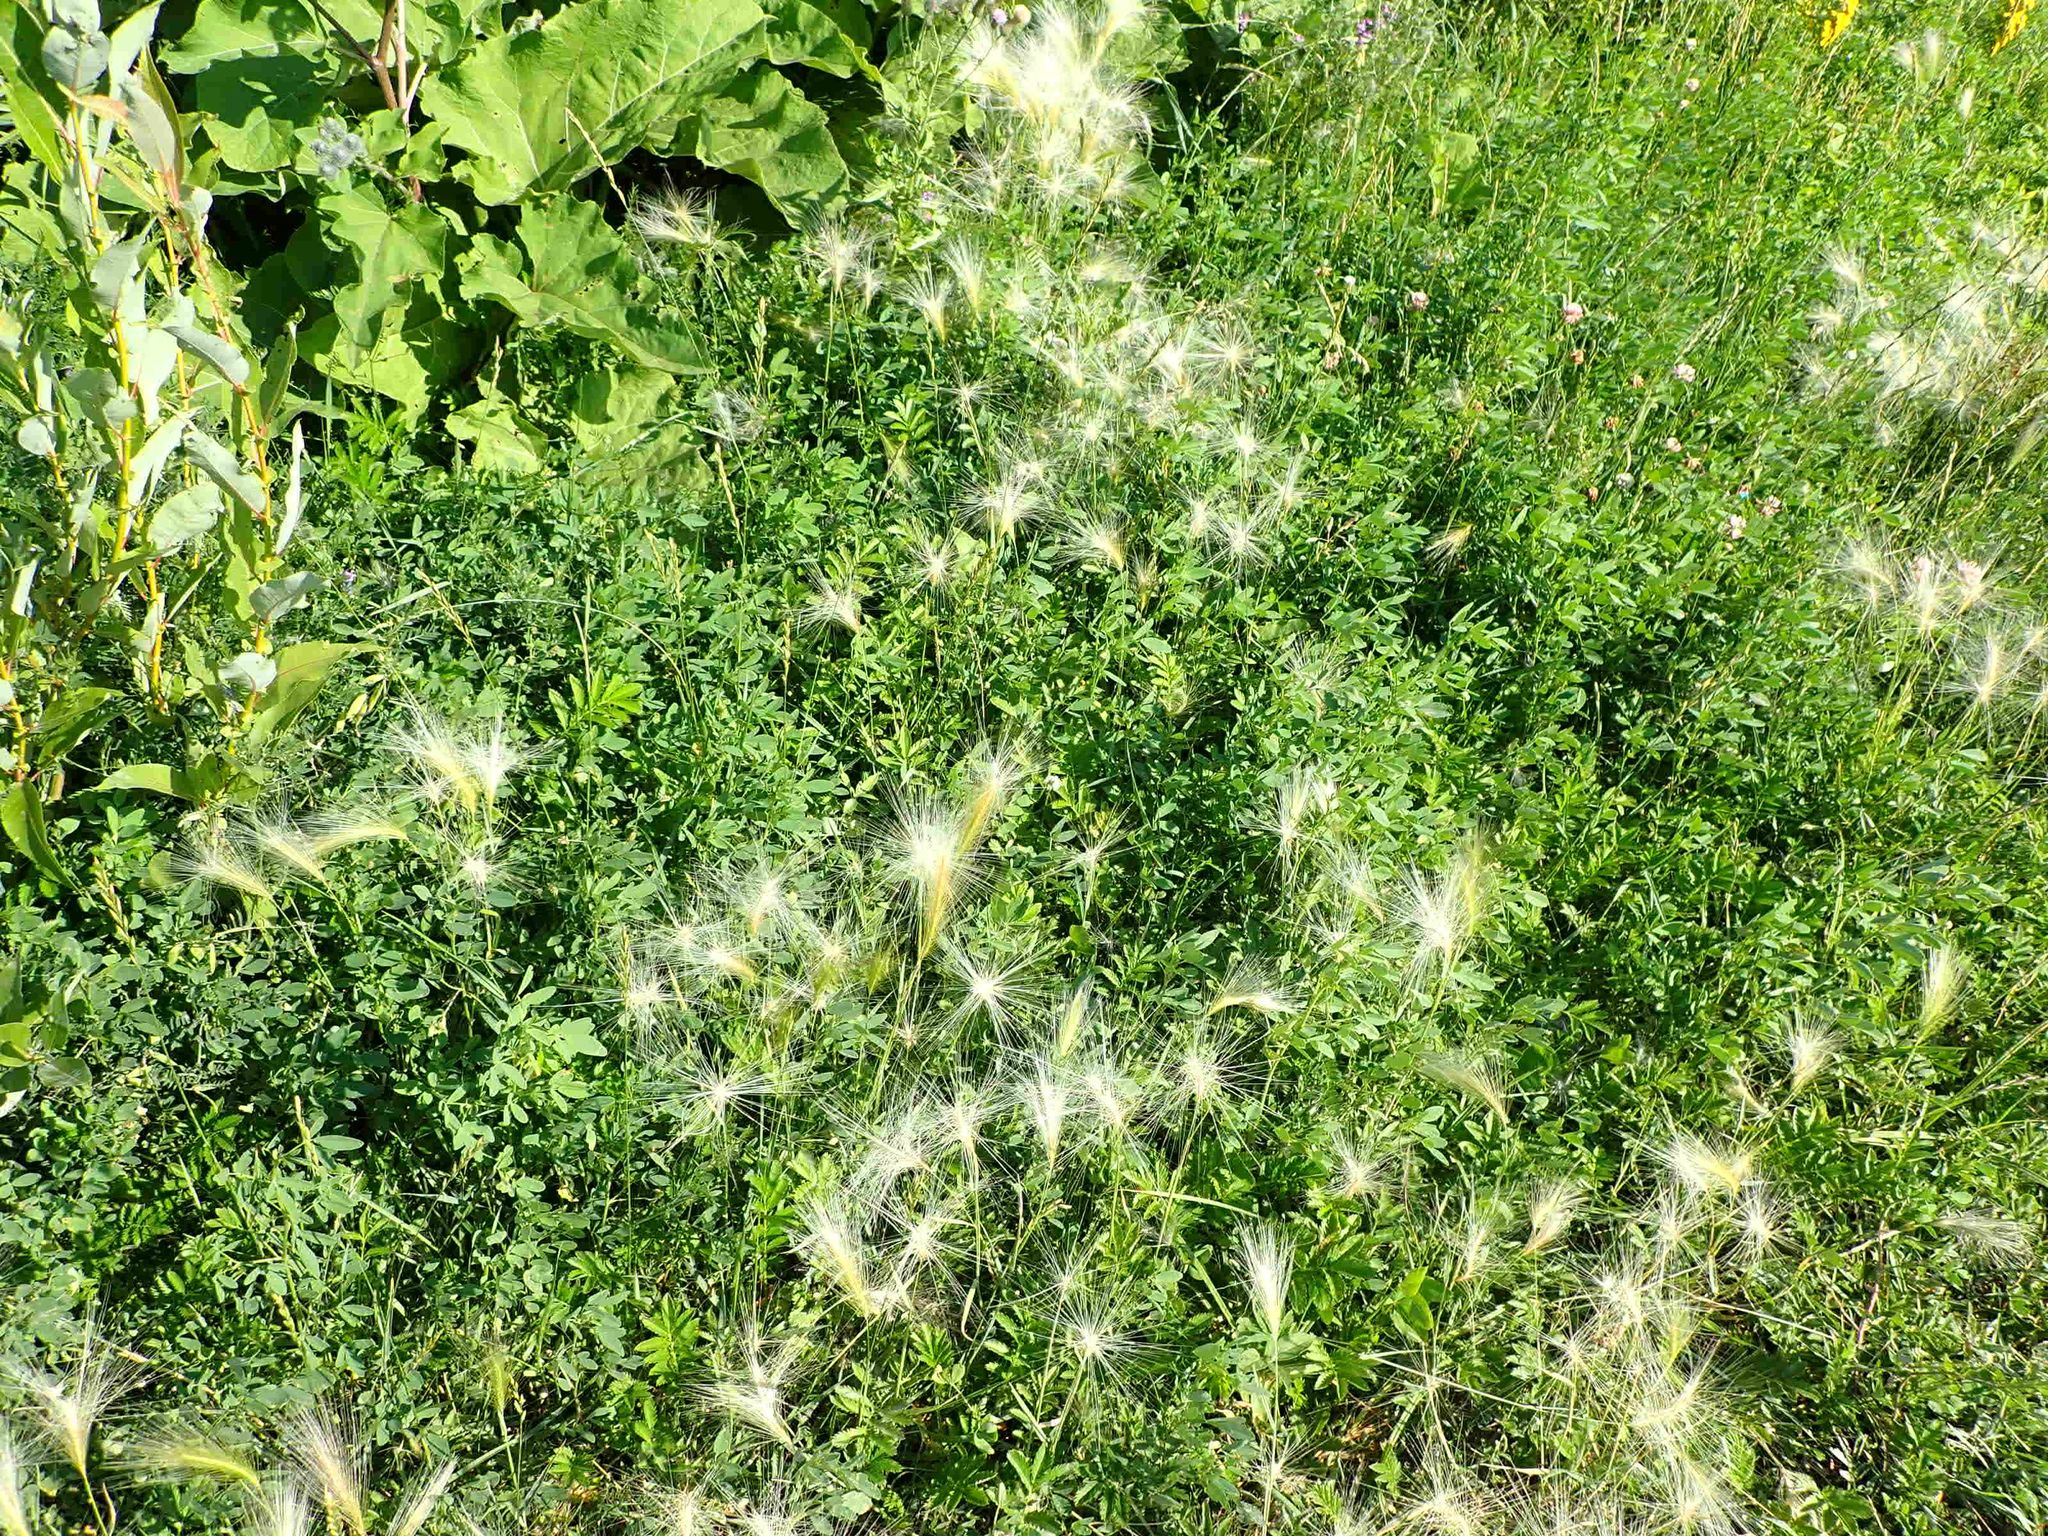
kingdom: Plantae
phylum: Tracheophyta
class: Liliopsida
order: Poales
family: Poaceae
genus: Hordeum
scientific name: Hordeum jubatum
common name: Foxtail barley
